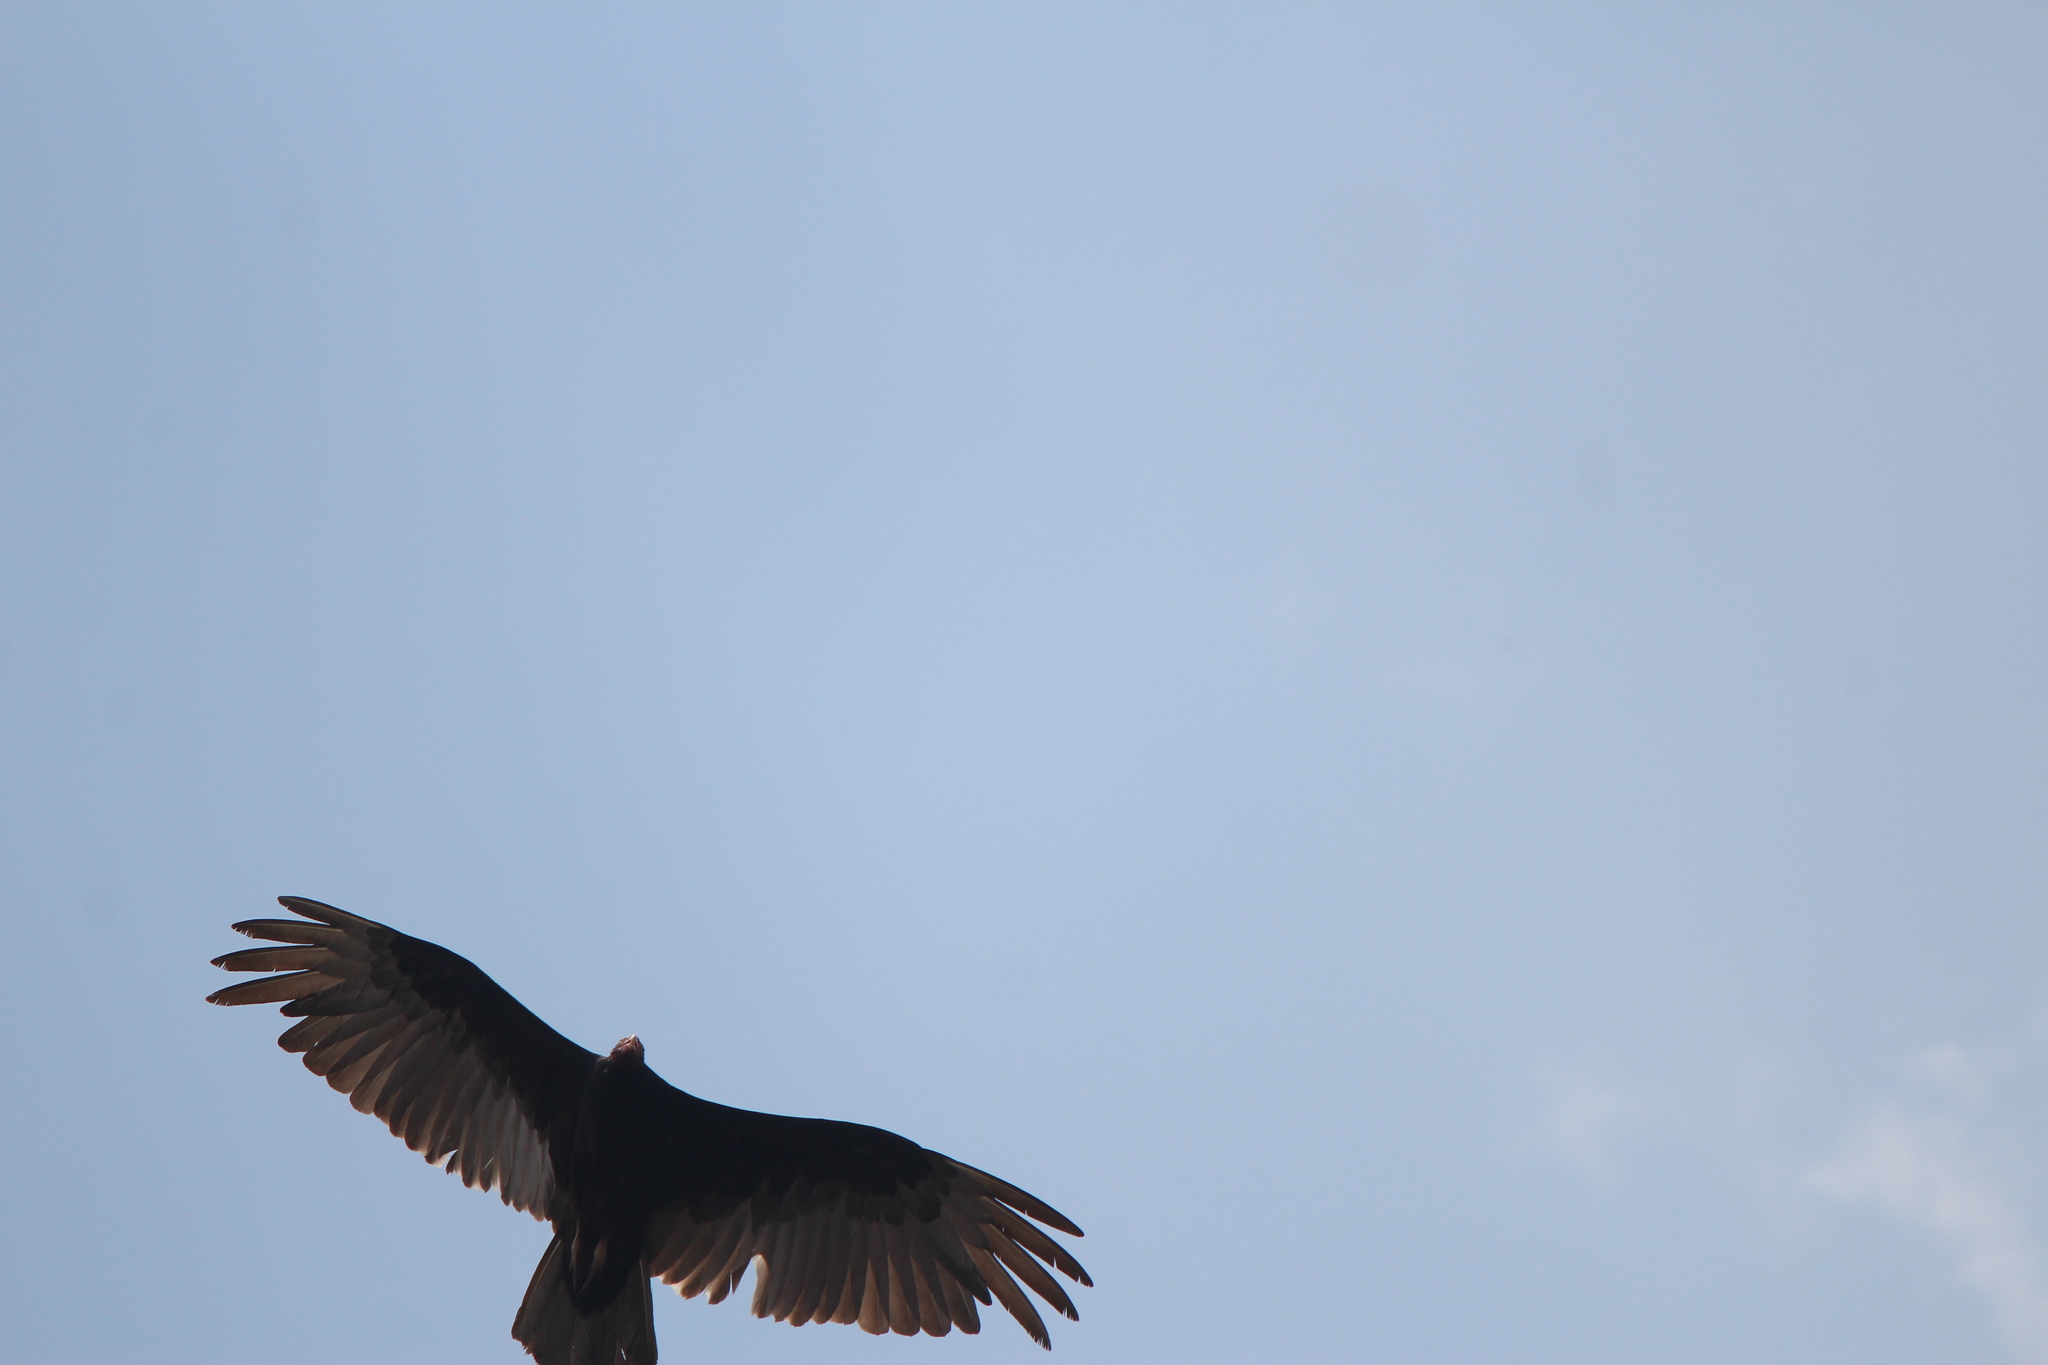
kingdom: Animalia
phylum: Chordata
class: Aves
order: Accipitriformes
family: Cathartidae
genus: Cathartes
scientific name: Cathartes aura
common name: Turkey vulture
